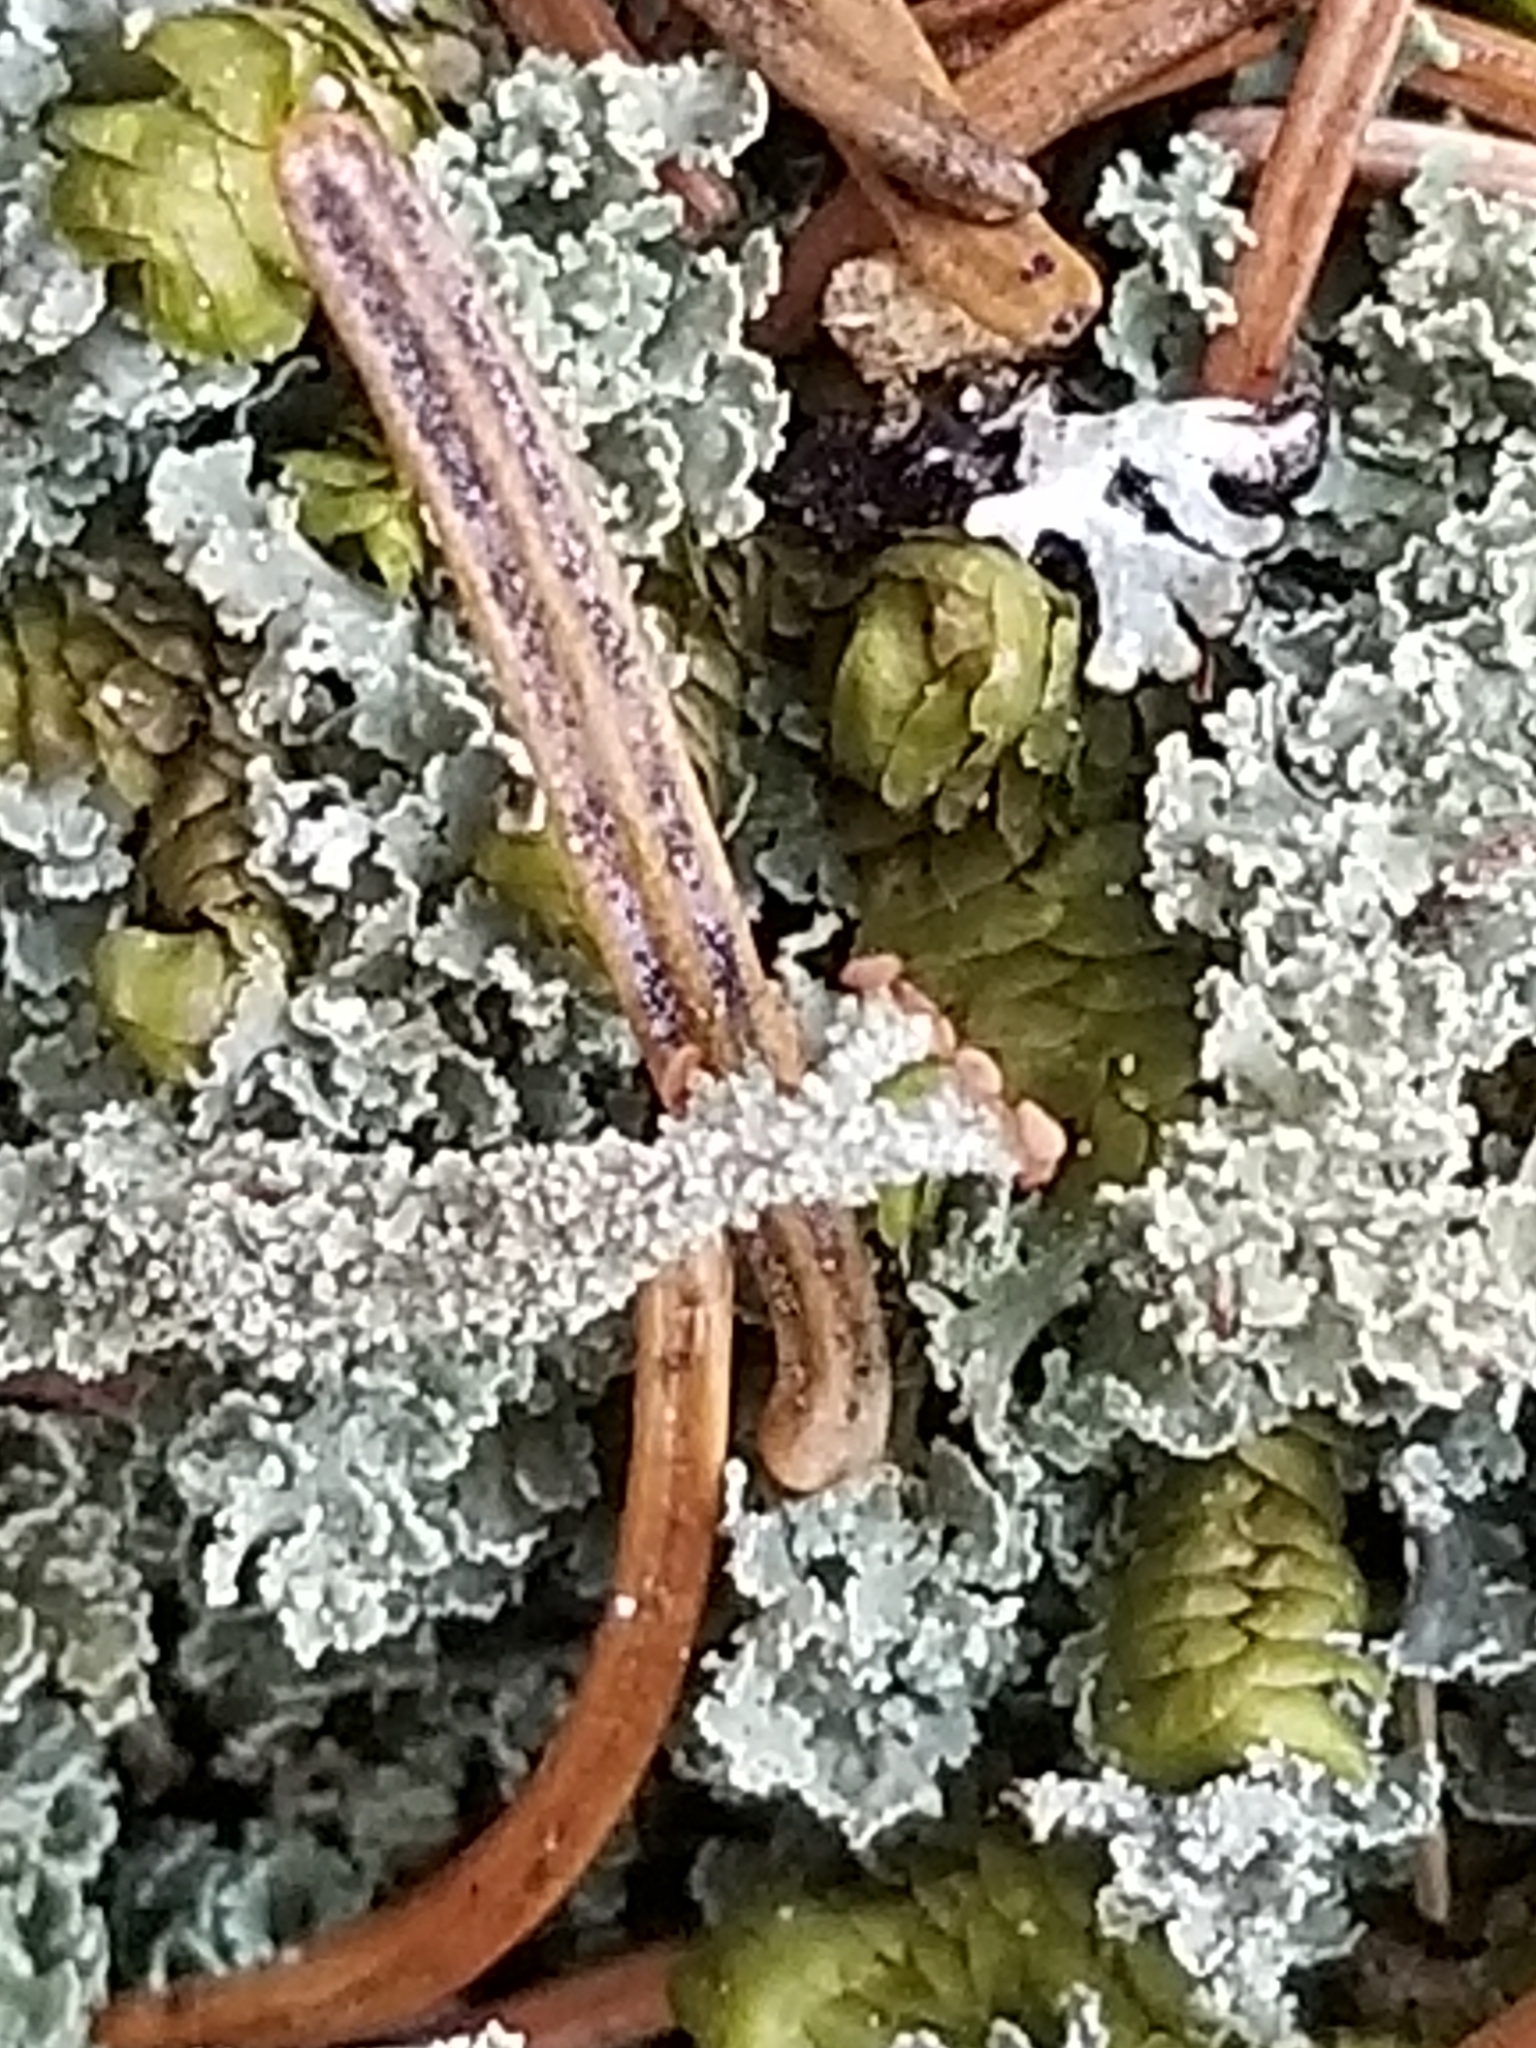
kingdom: Fungi
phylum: Ascomycota
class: Lecanoromycetes
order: Lecanorales
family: Cladoniaceae
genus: Cladonia
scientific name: Cladonia squamosa
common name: Dragon horn
